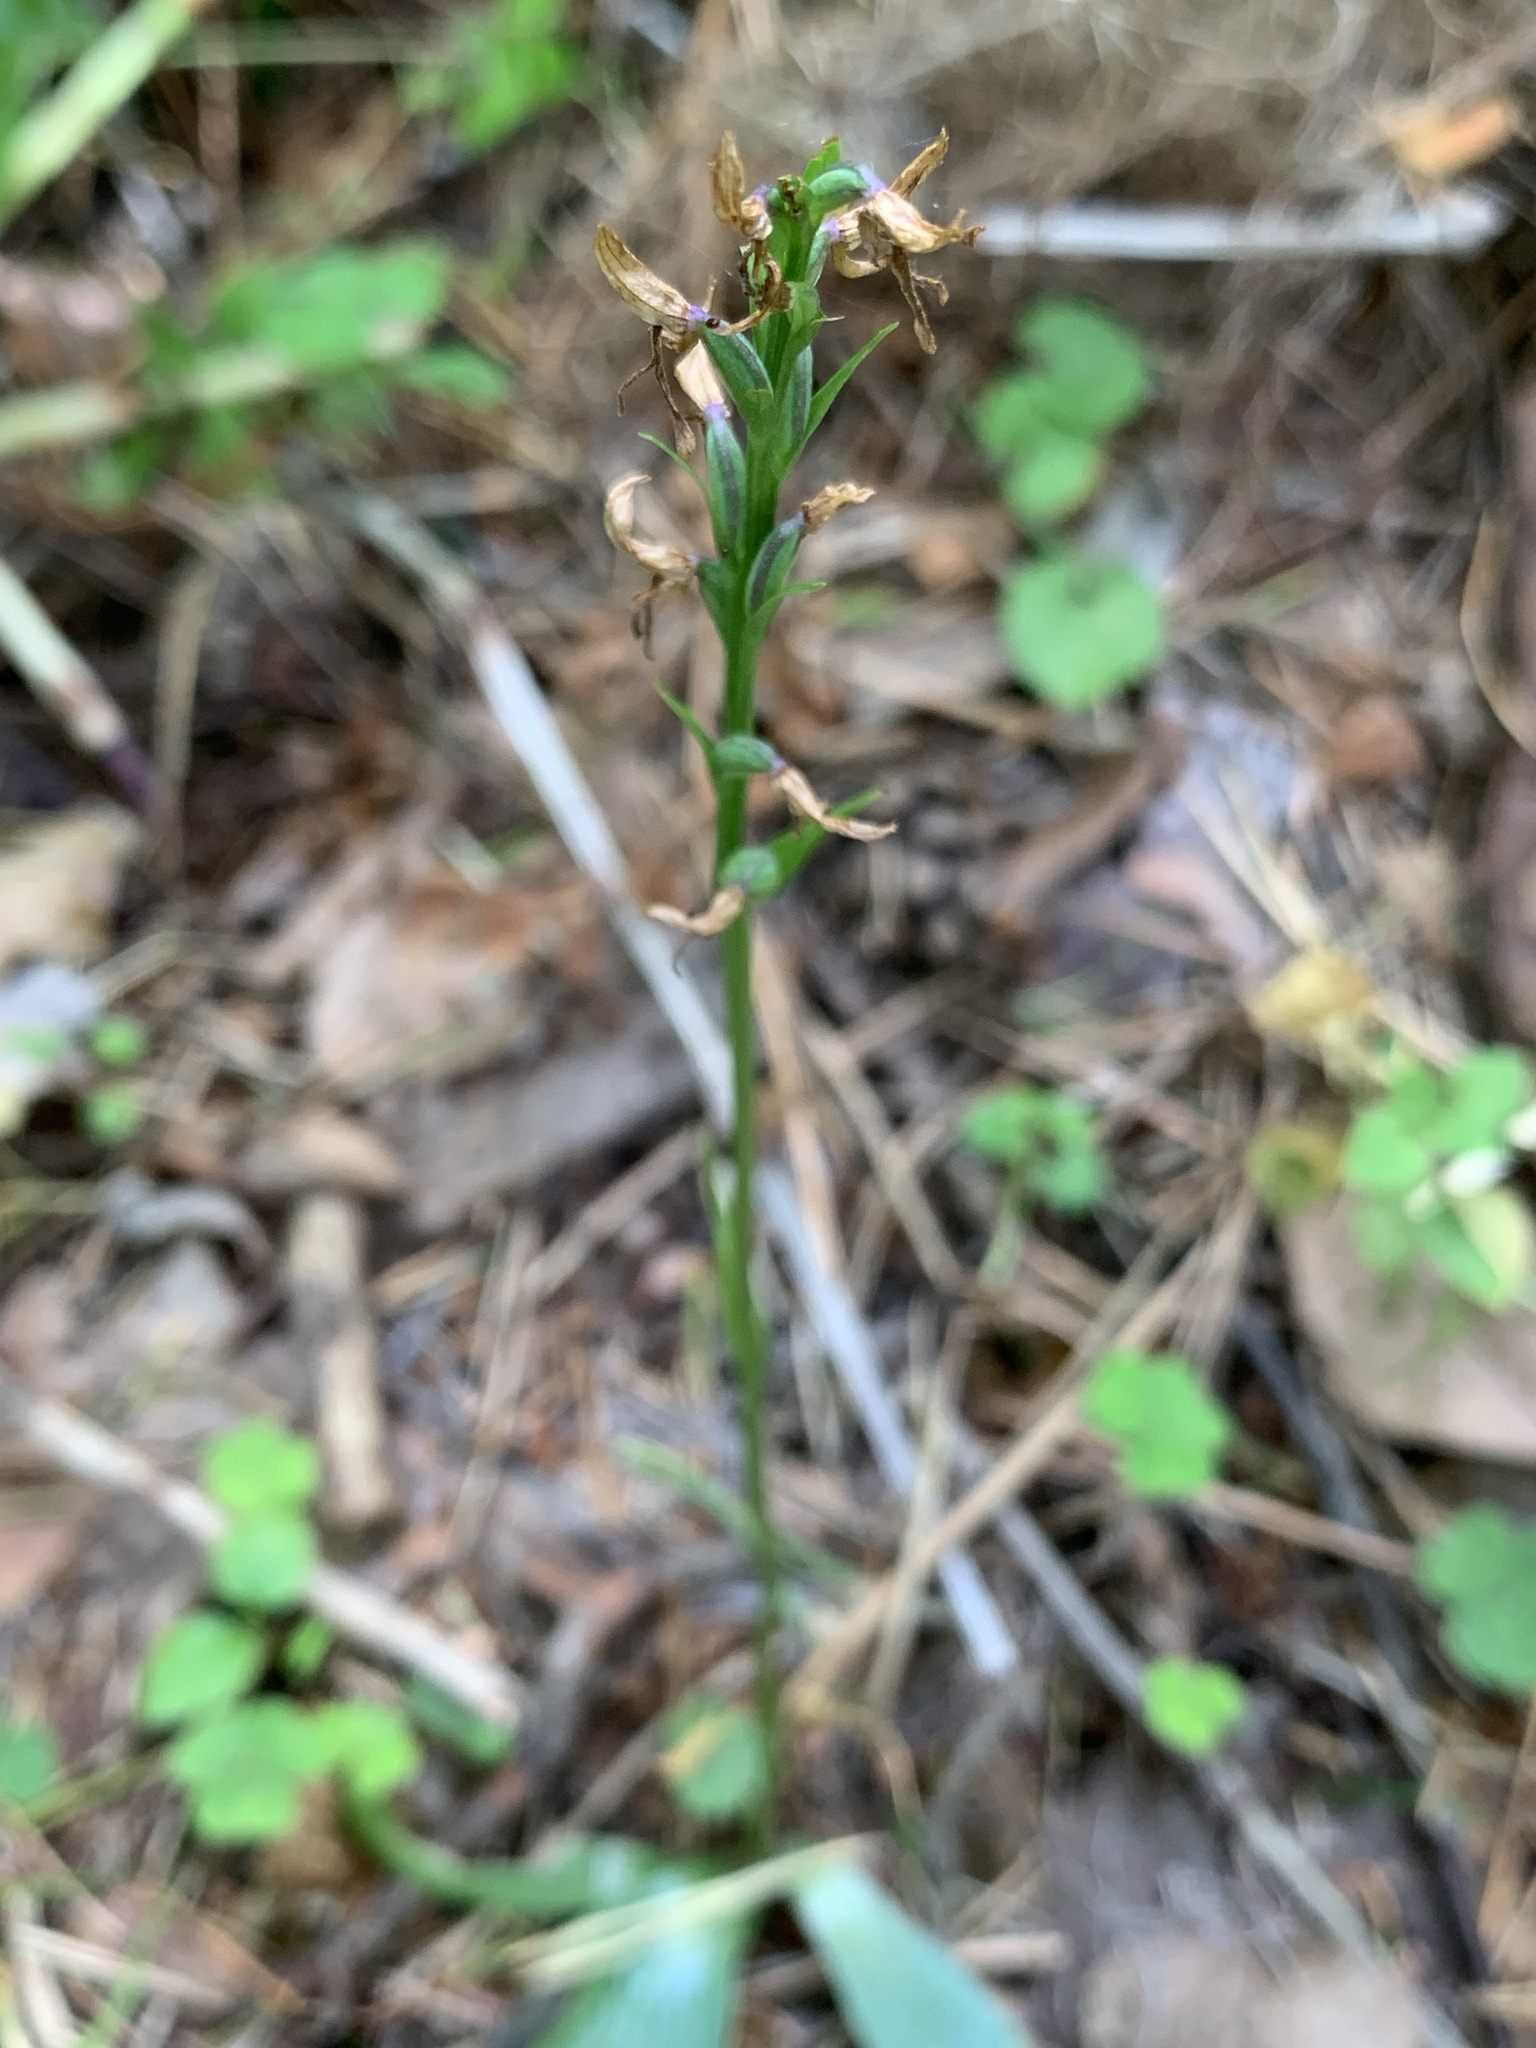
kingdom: Plantae
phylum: Tracheophyta
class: Liliopsida
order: Asparagales
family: Orchidaceae
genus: Hemipilia
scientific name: Hemipilia cucullata
